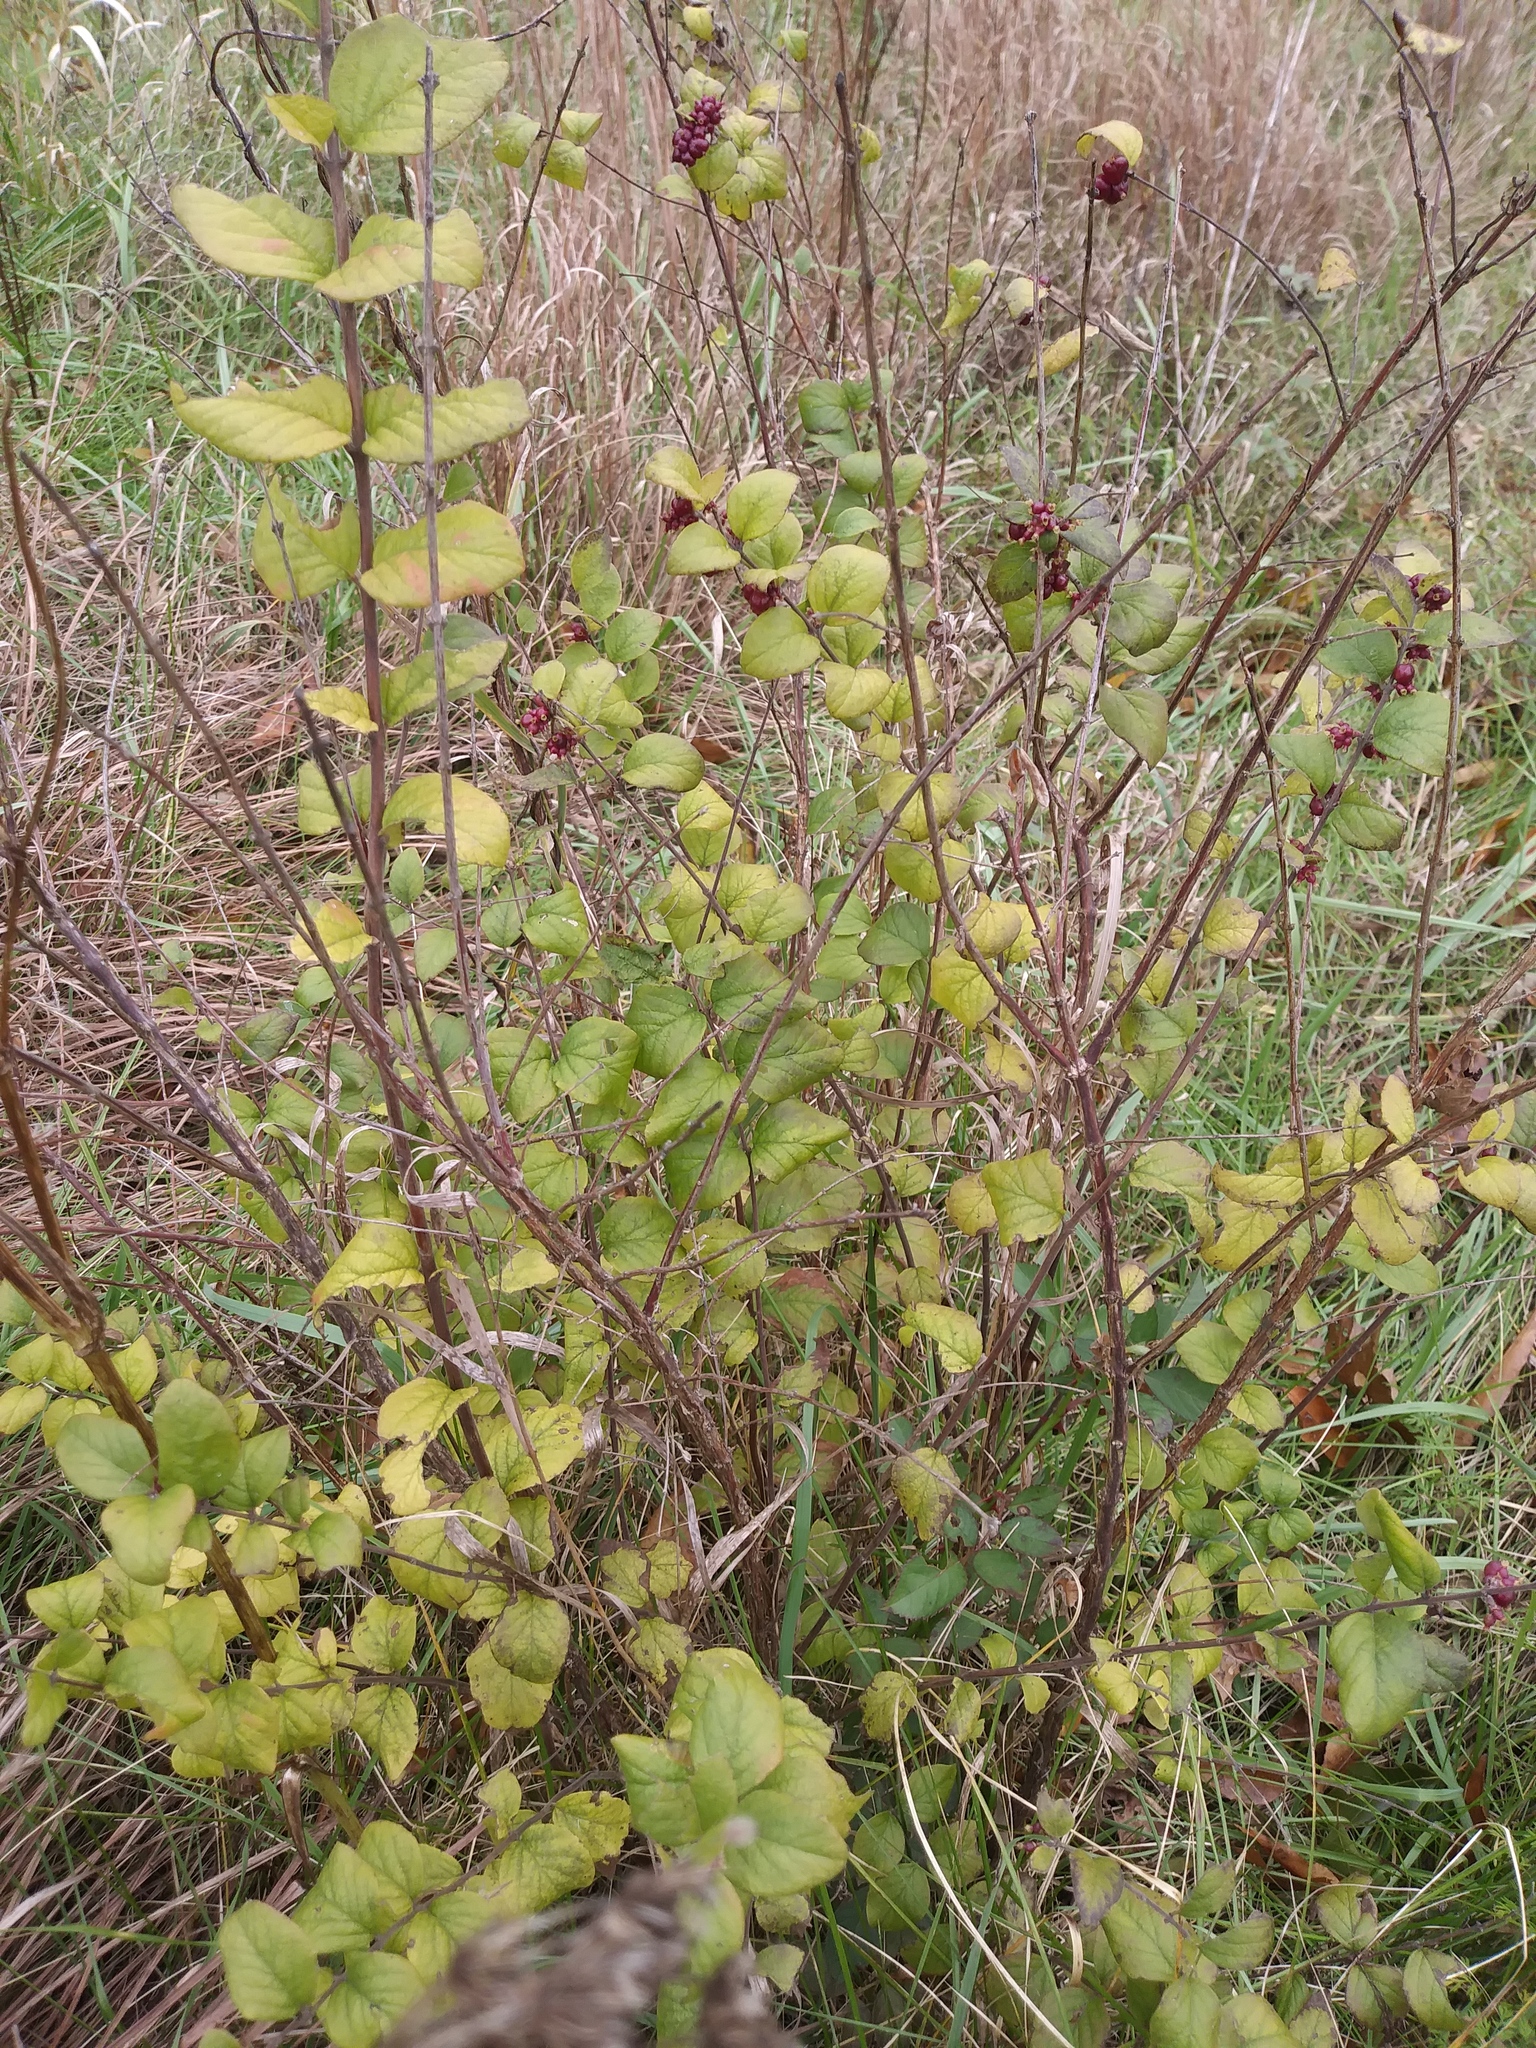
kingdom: Plantae
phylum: Tracheophyta
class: Magnoliopsida
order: Dipsacales
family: Caprifoliaceae
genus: Symphoricarpos
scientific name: Symphoricarpos orbiculatus
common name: Coralberry
